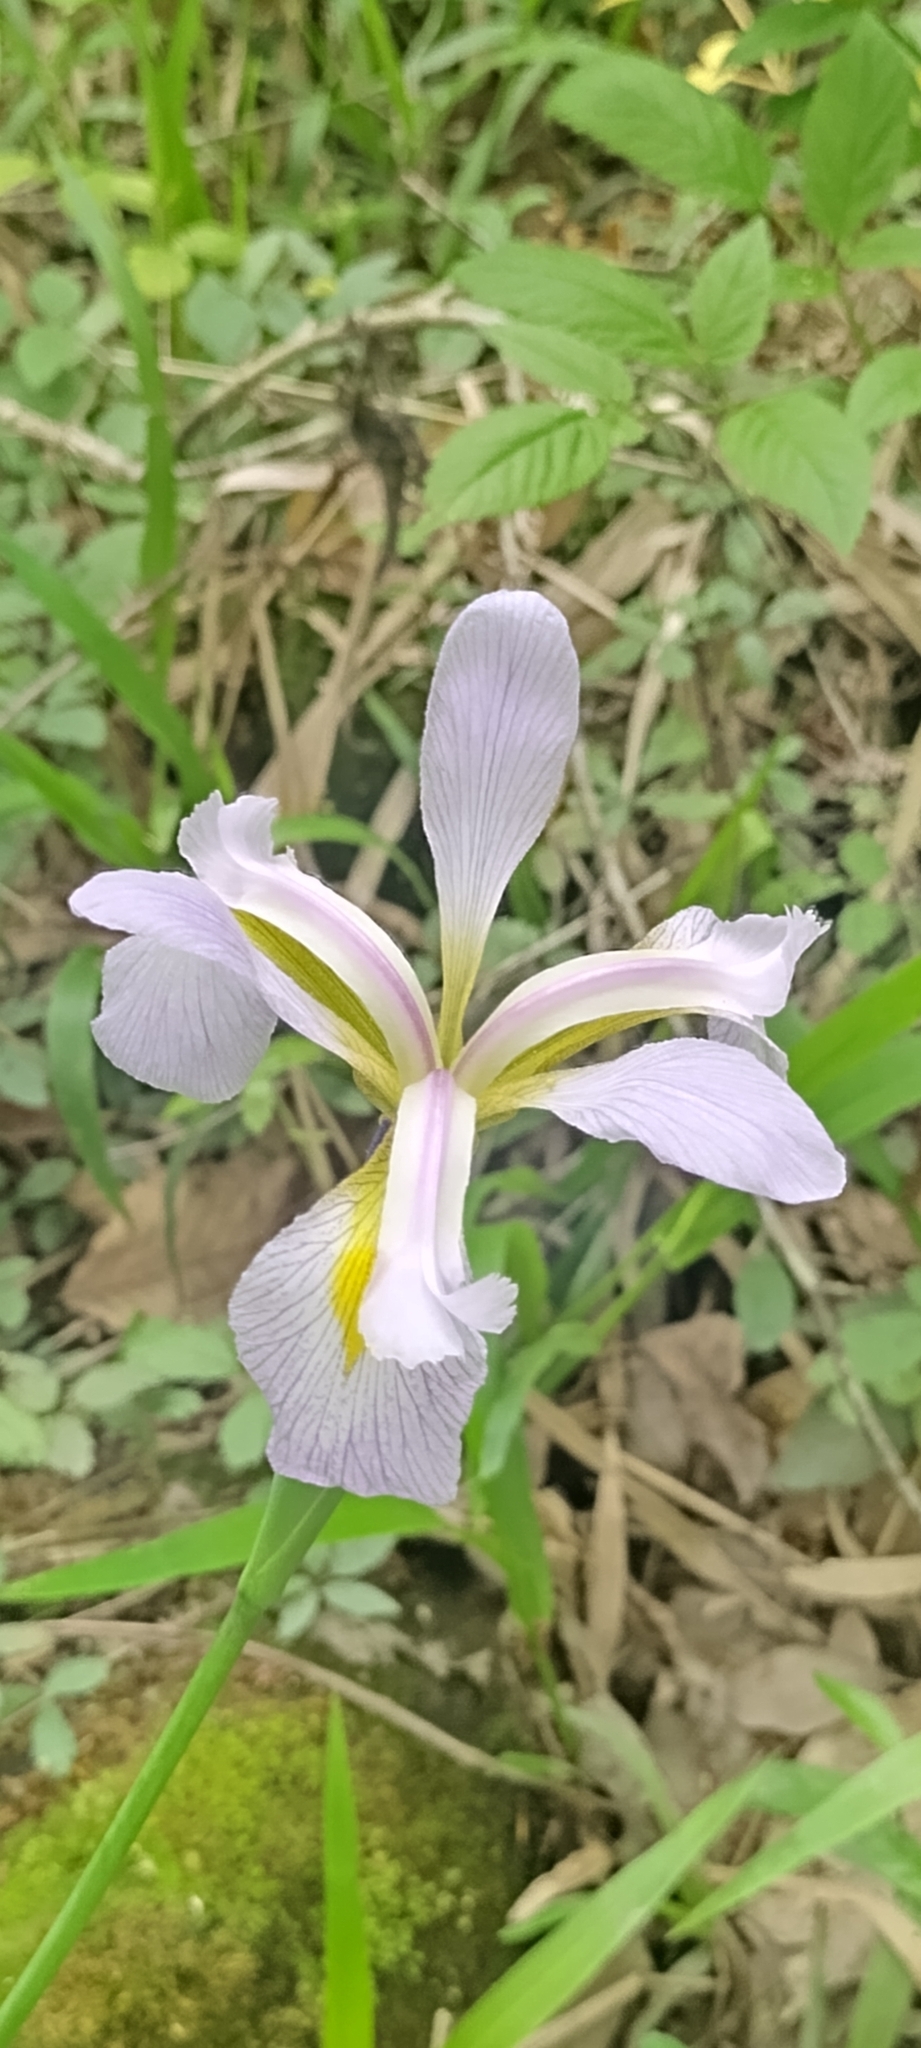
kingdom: Plantae
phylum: Tracheophyta
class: Liliopsida
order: Asparagales
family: Iridaceae
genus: Iris
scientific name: Iris virginica
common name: Southern blue flag
